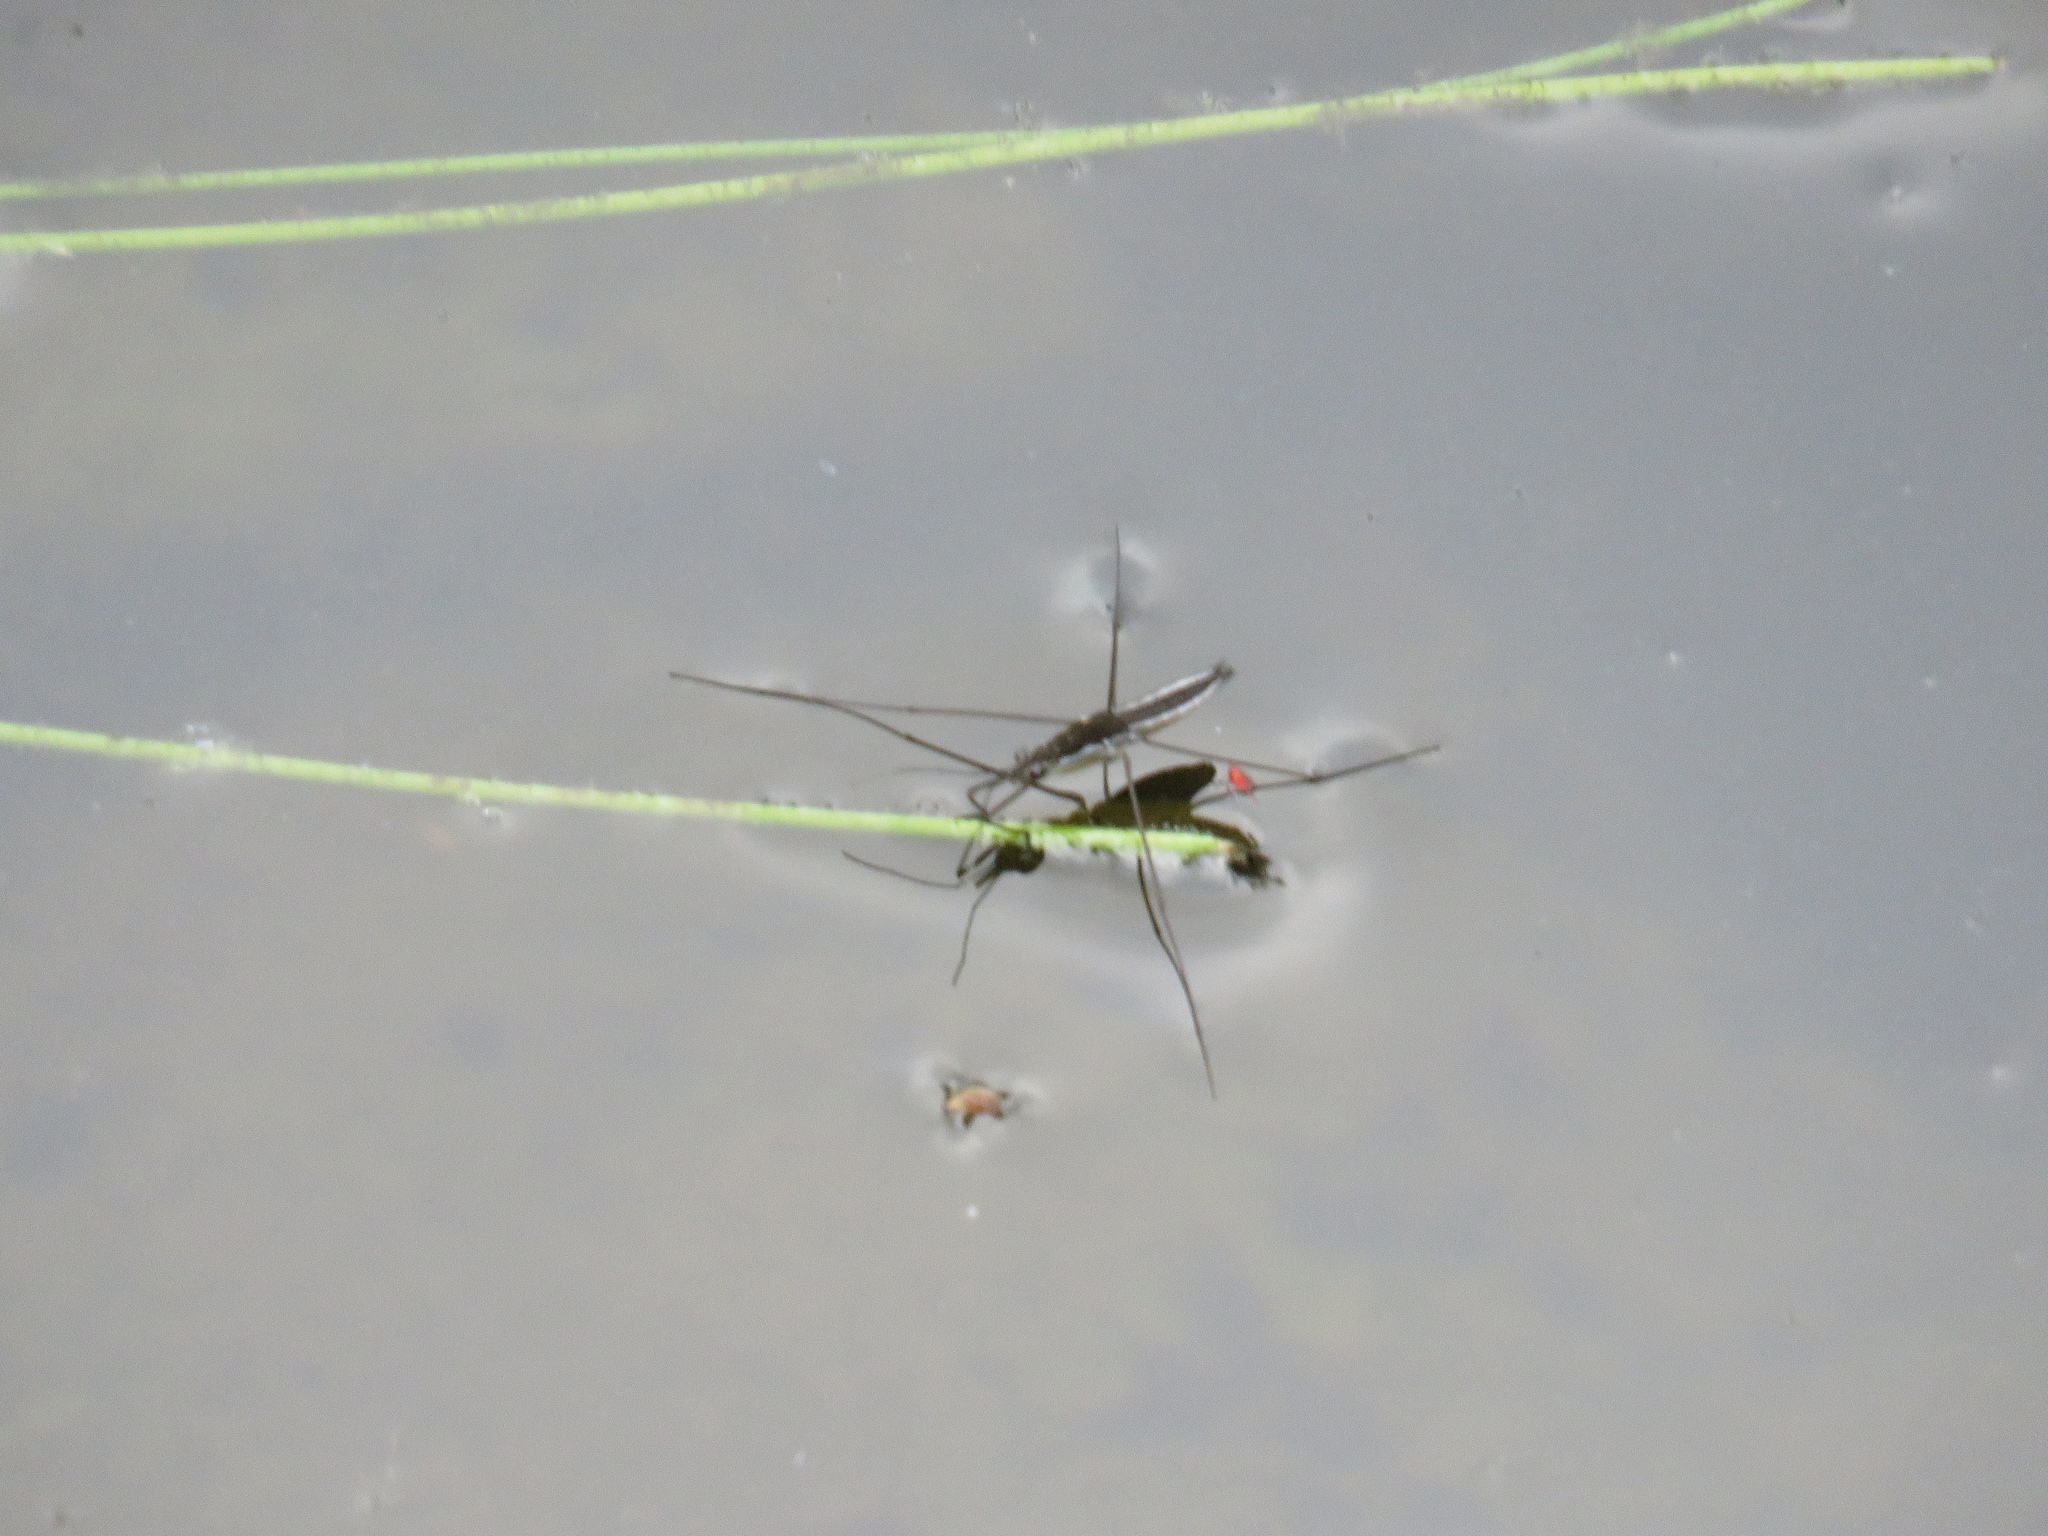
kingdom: Animalia
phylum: Arthropoda
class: Insecta
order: Hemiptera
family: Gerridae
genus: Limnoporus
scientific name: Limnoporus canaliculatus
